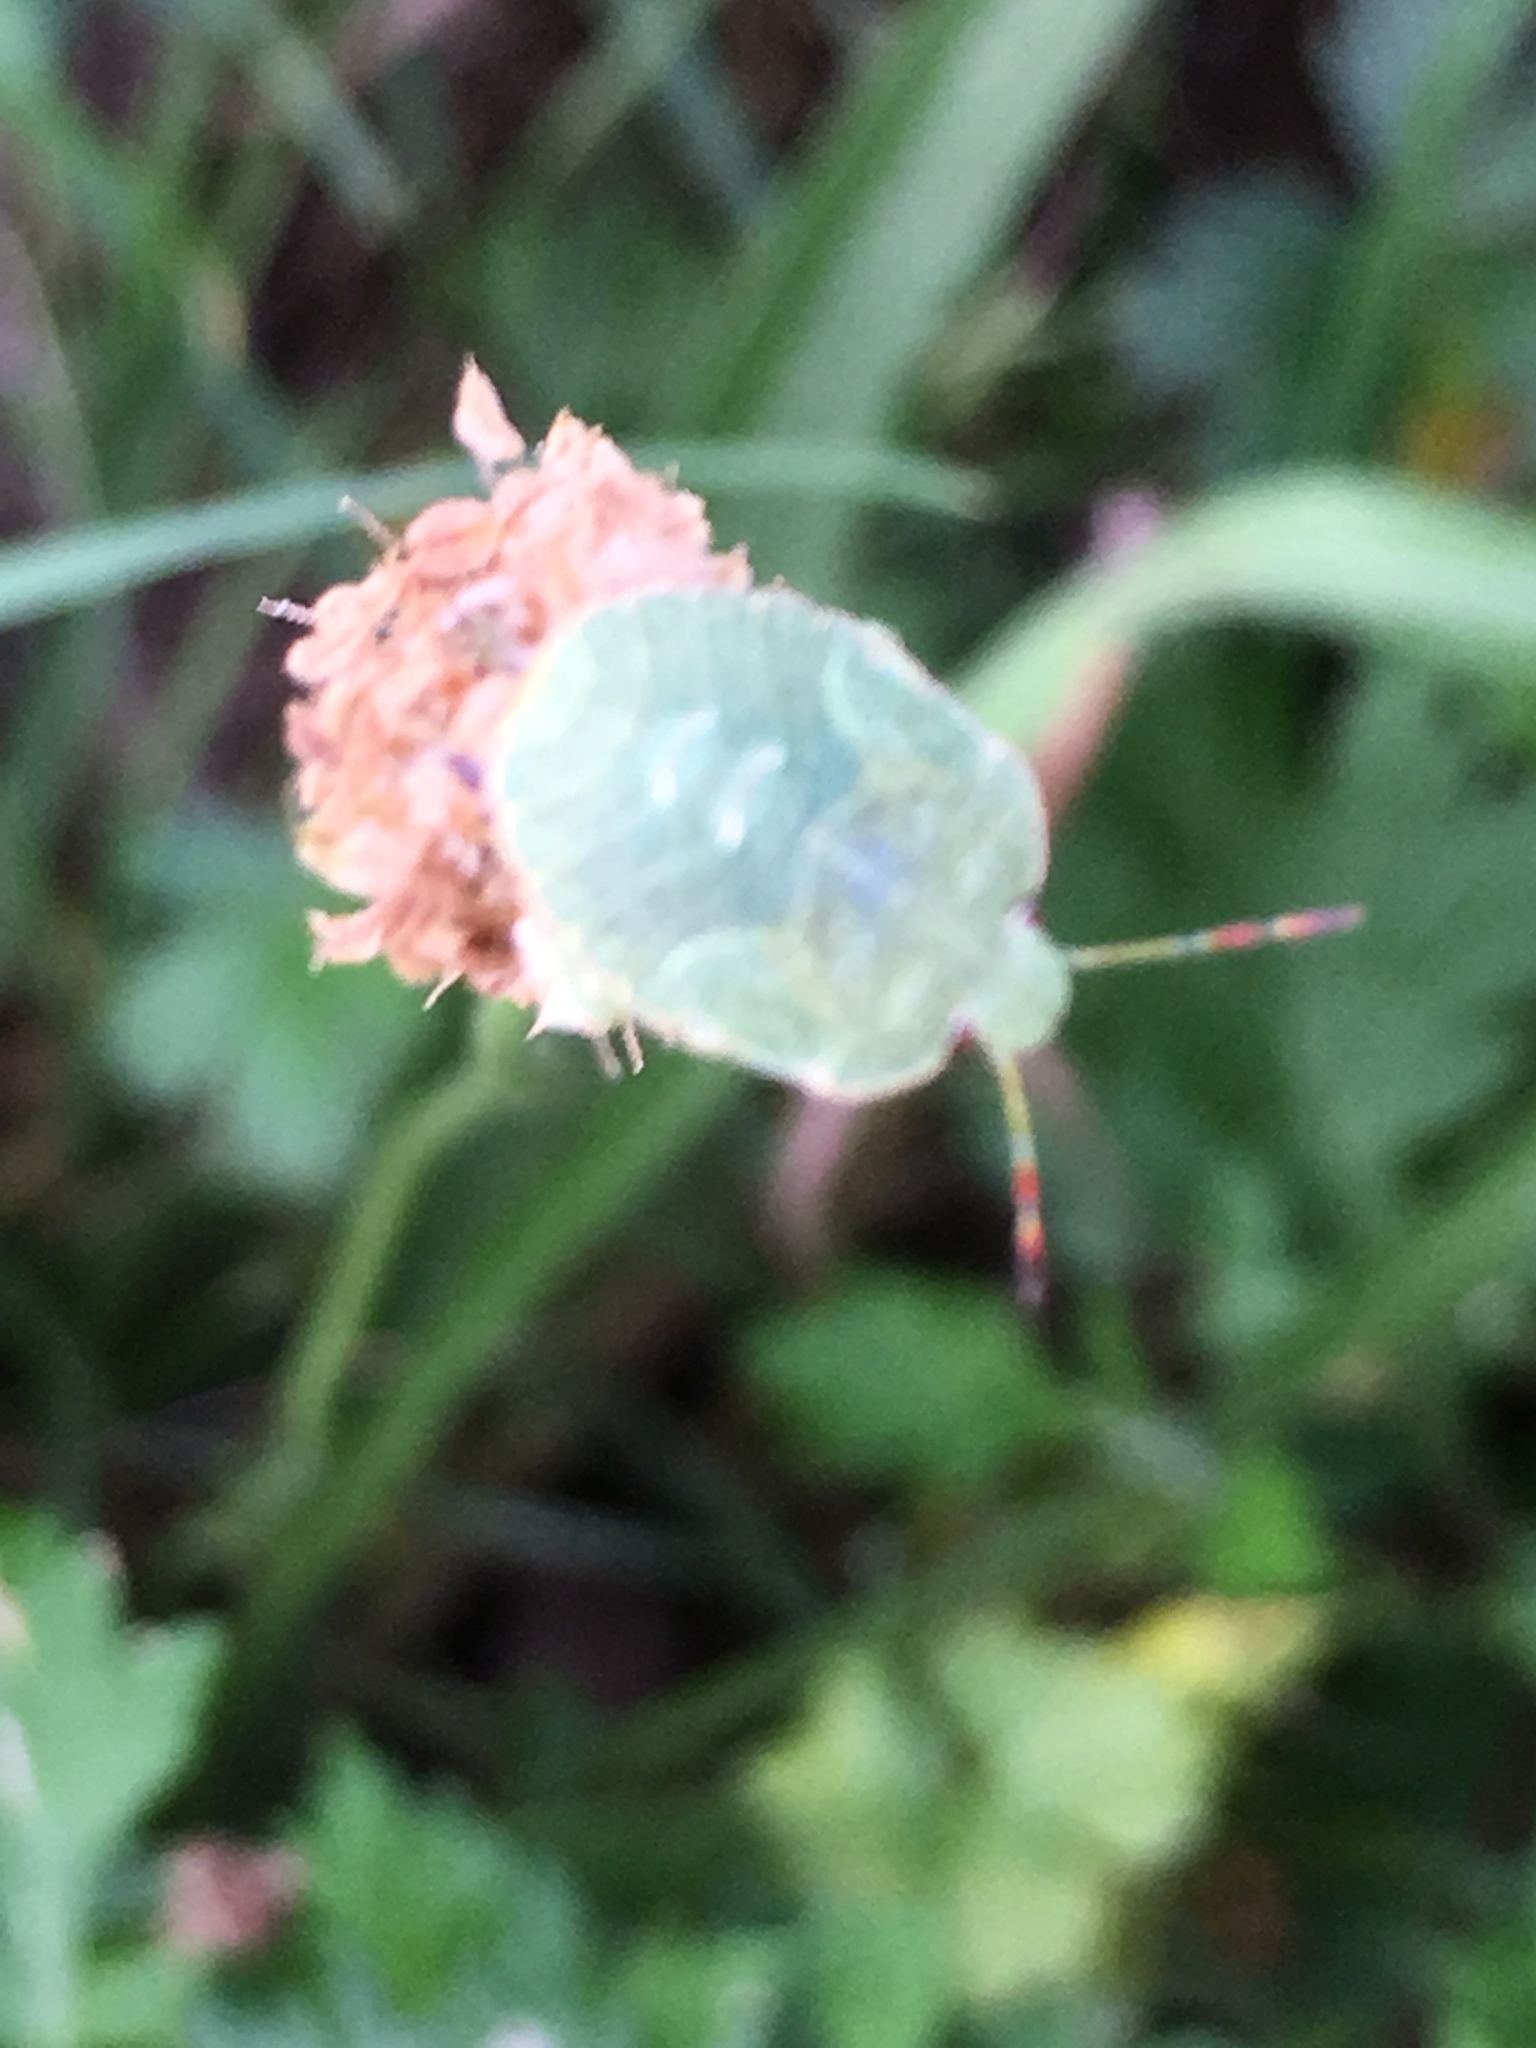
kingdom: Animalia
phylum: Arthropoda
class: Insecta
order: Hemiptera
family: Pentatomidae
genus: Palomena
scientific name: Palomena prasina
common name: Green shieldbug
